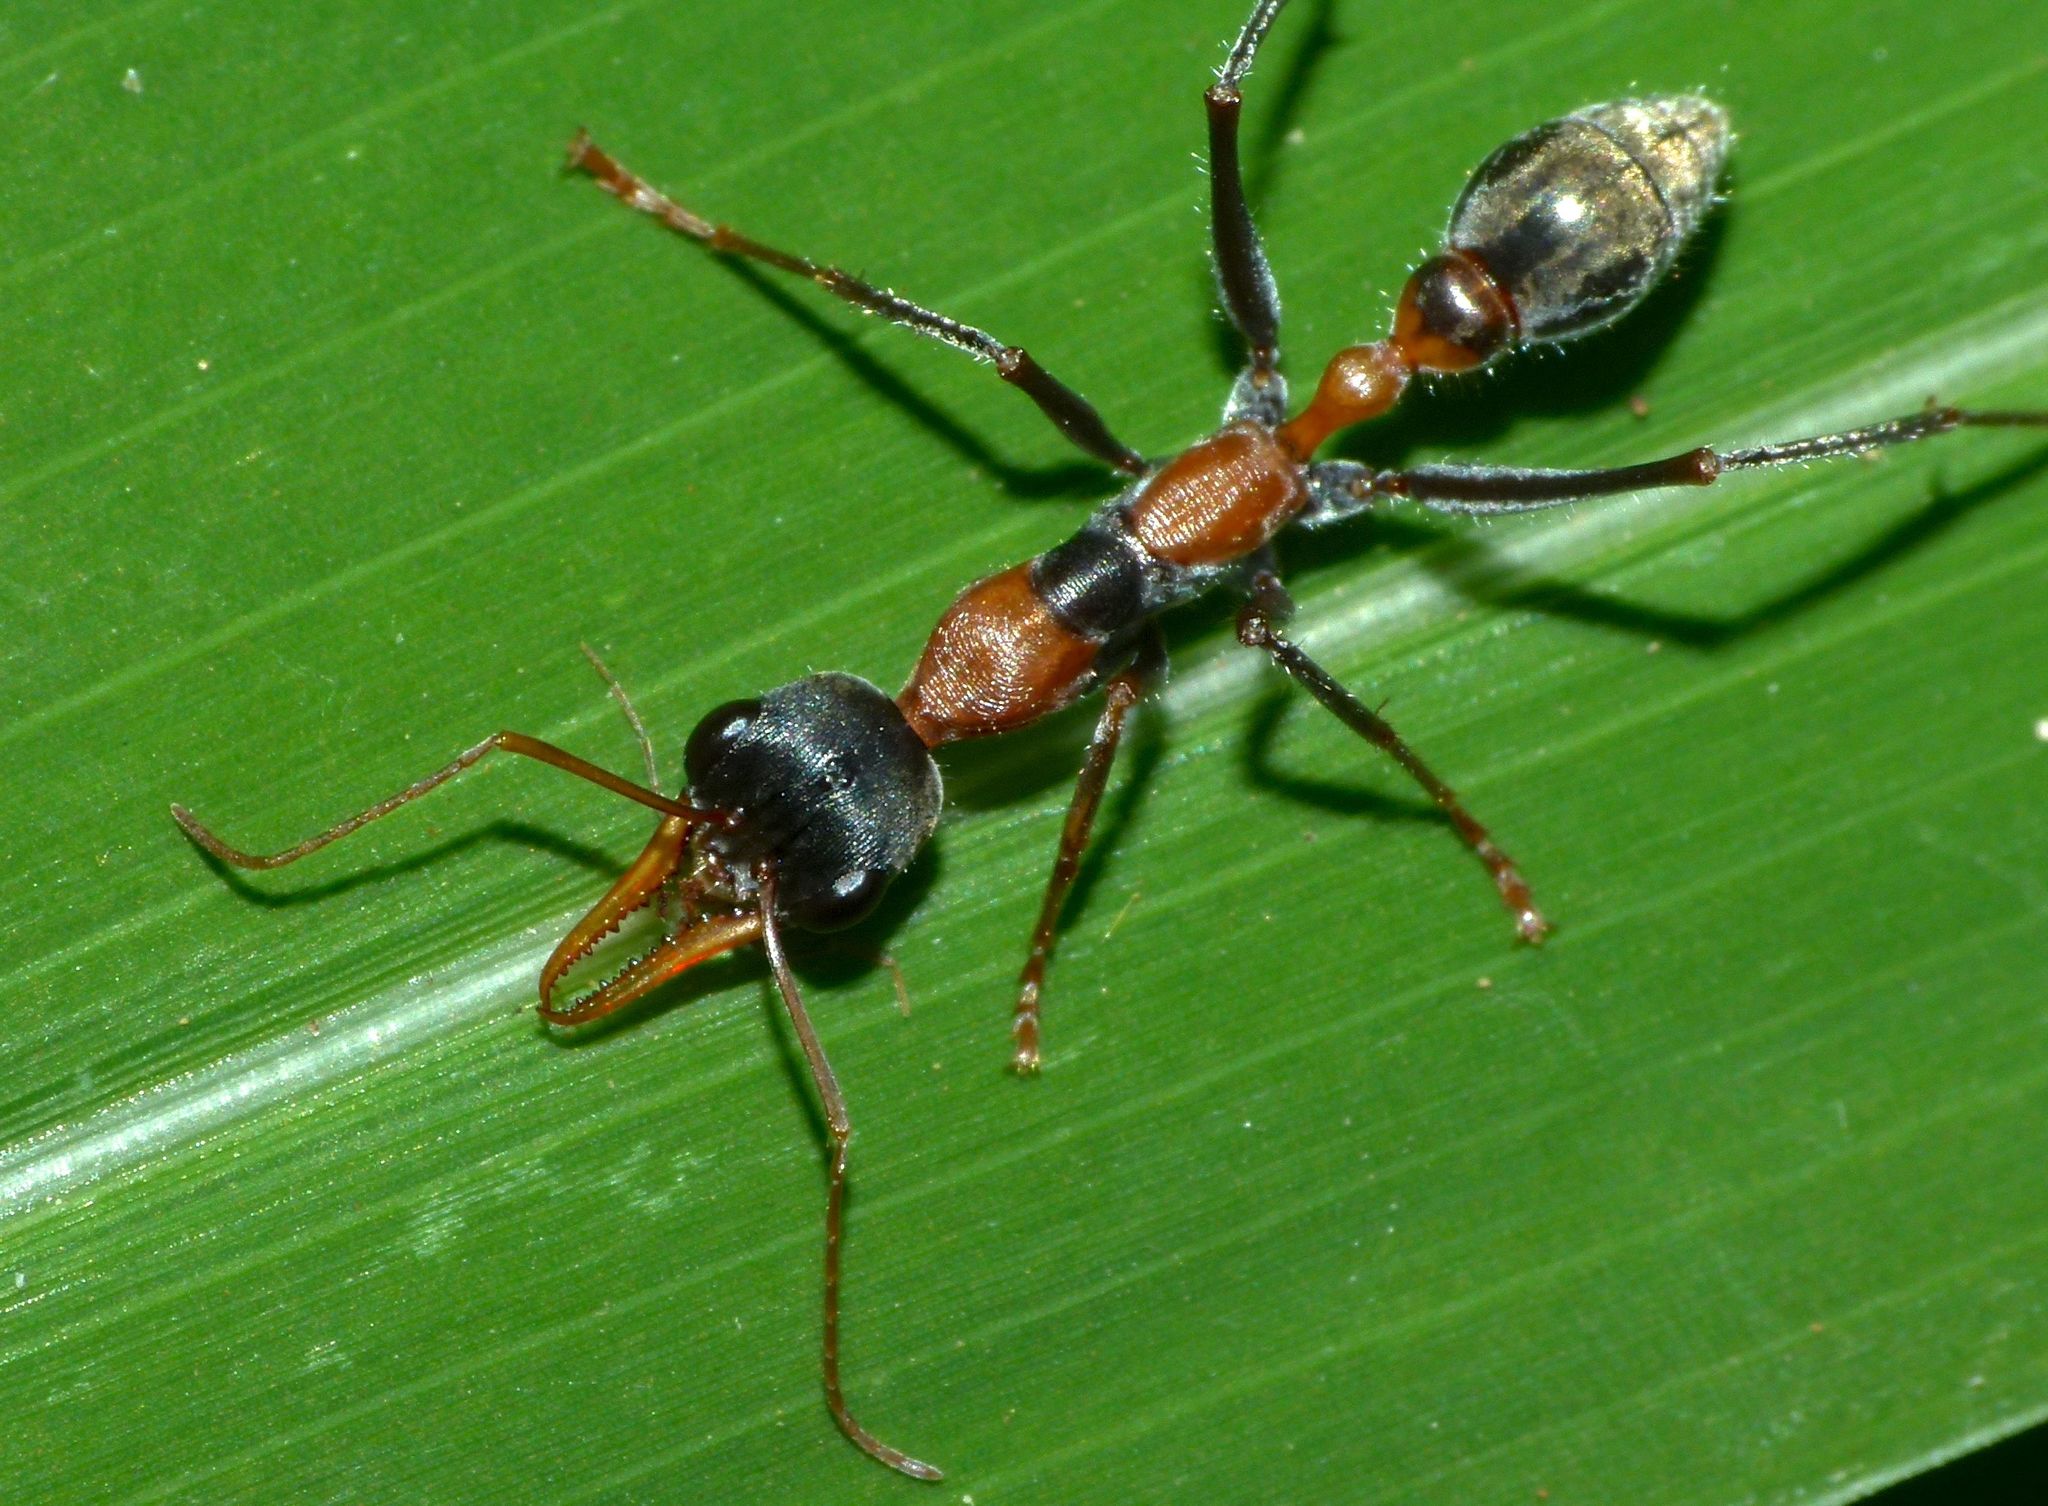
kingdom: Animalia
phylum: Arthropoda
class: Insecta
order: Hymenoptera
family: Formicidae
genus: Myrmecia
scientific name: Myrmecia nigrocincta
